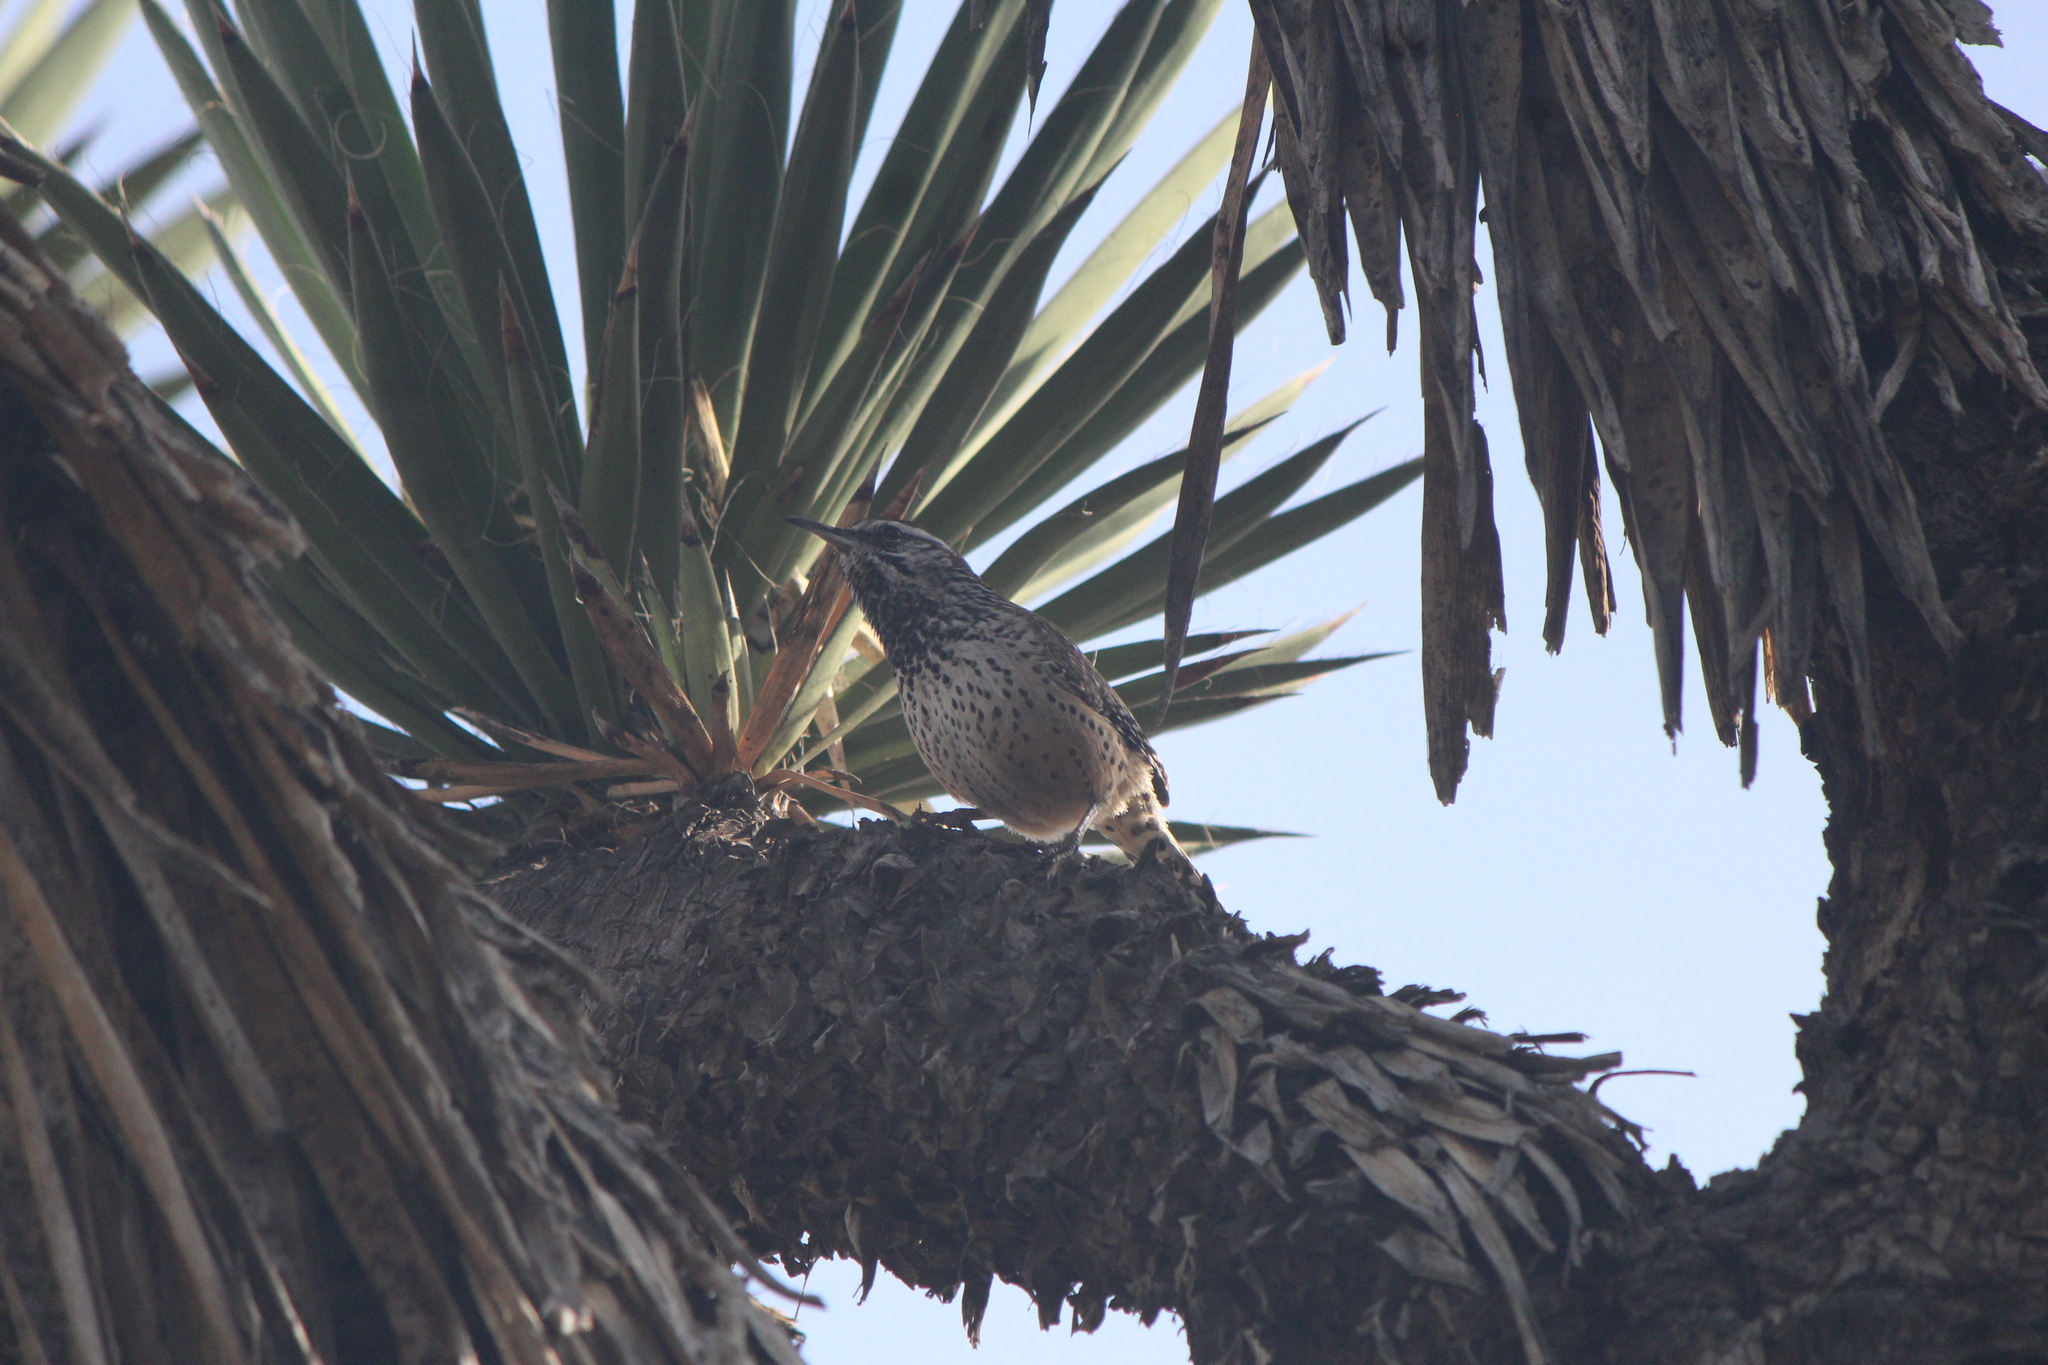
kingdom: Animalia
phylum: Chordata
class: Aves
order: Passeriformes
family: Troglodytidae
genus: Campylorhynchus
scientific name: Campylorhynchus brunneicapillus
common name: Cactus wren
